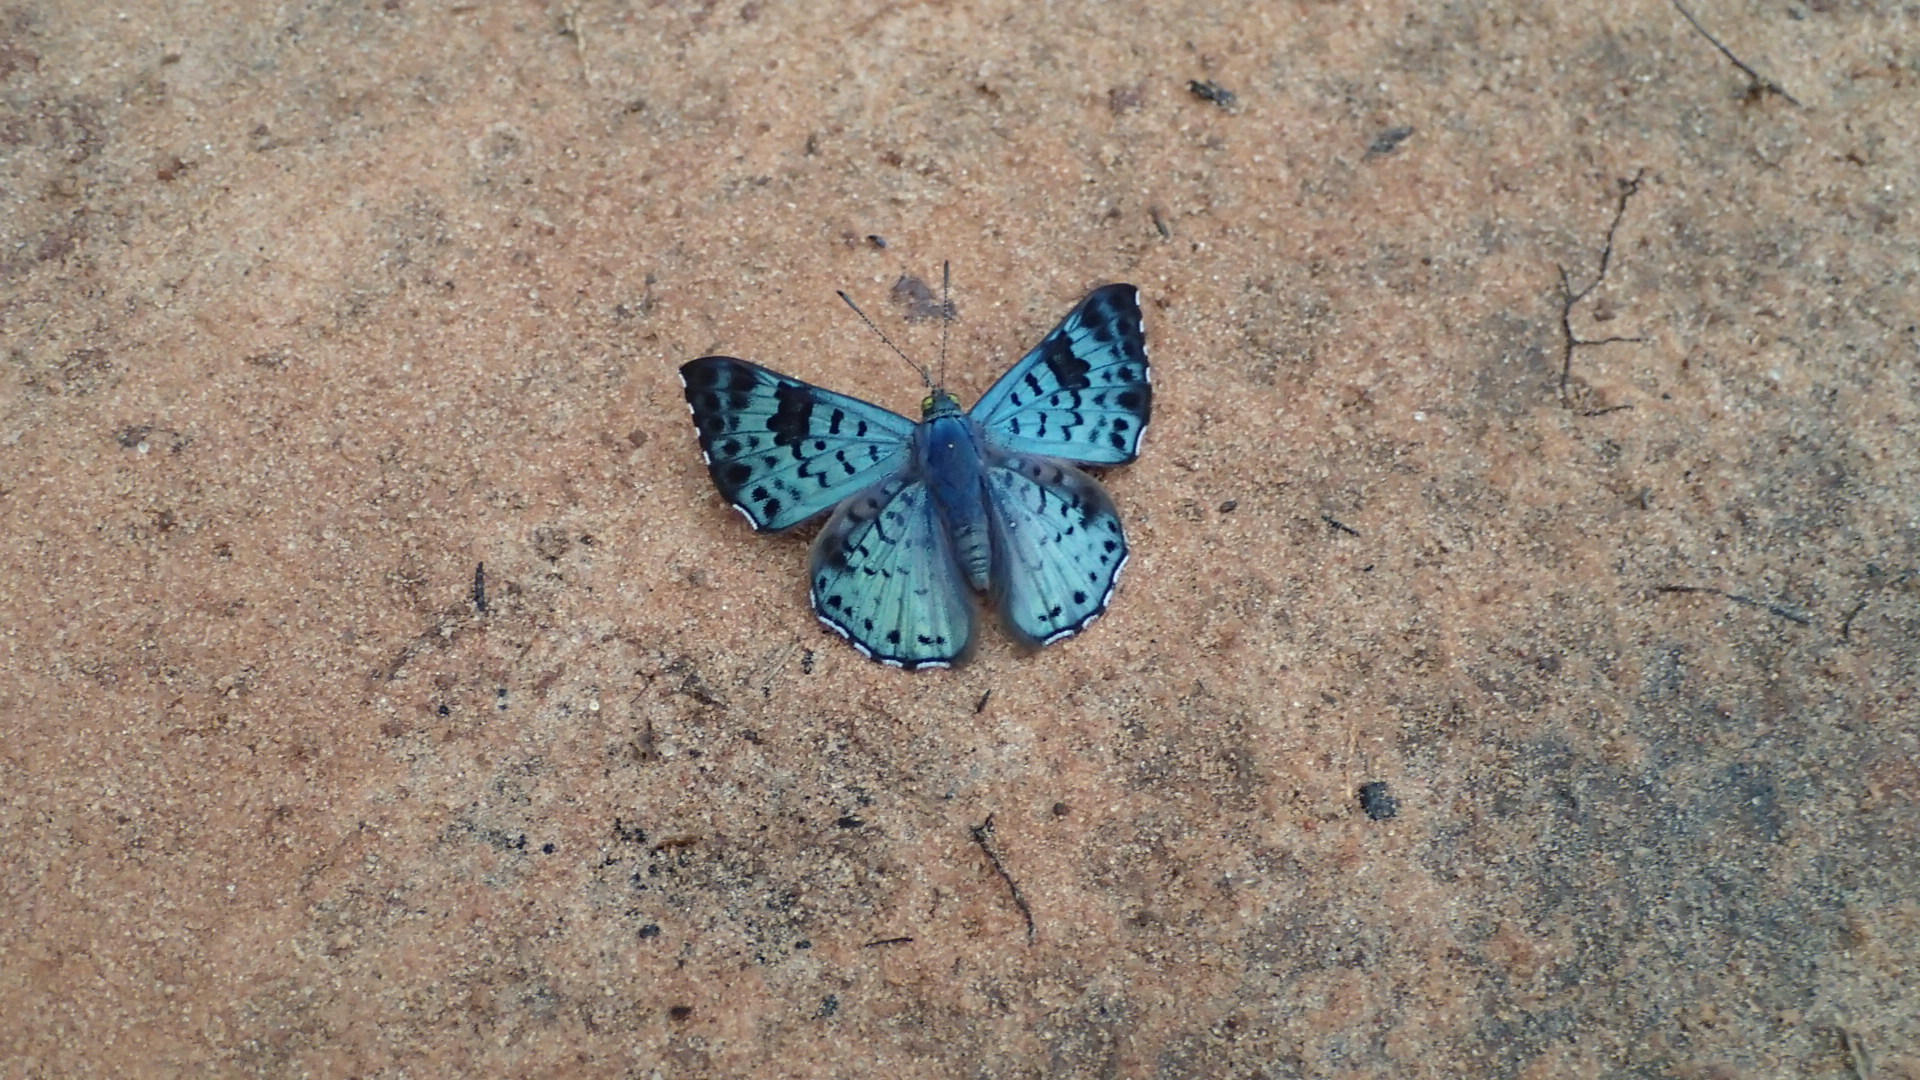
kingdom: Animalia
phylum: Arthropoda
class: Insecta
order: Lepidoptera
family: Riodinidae
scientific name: Riodinidae
